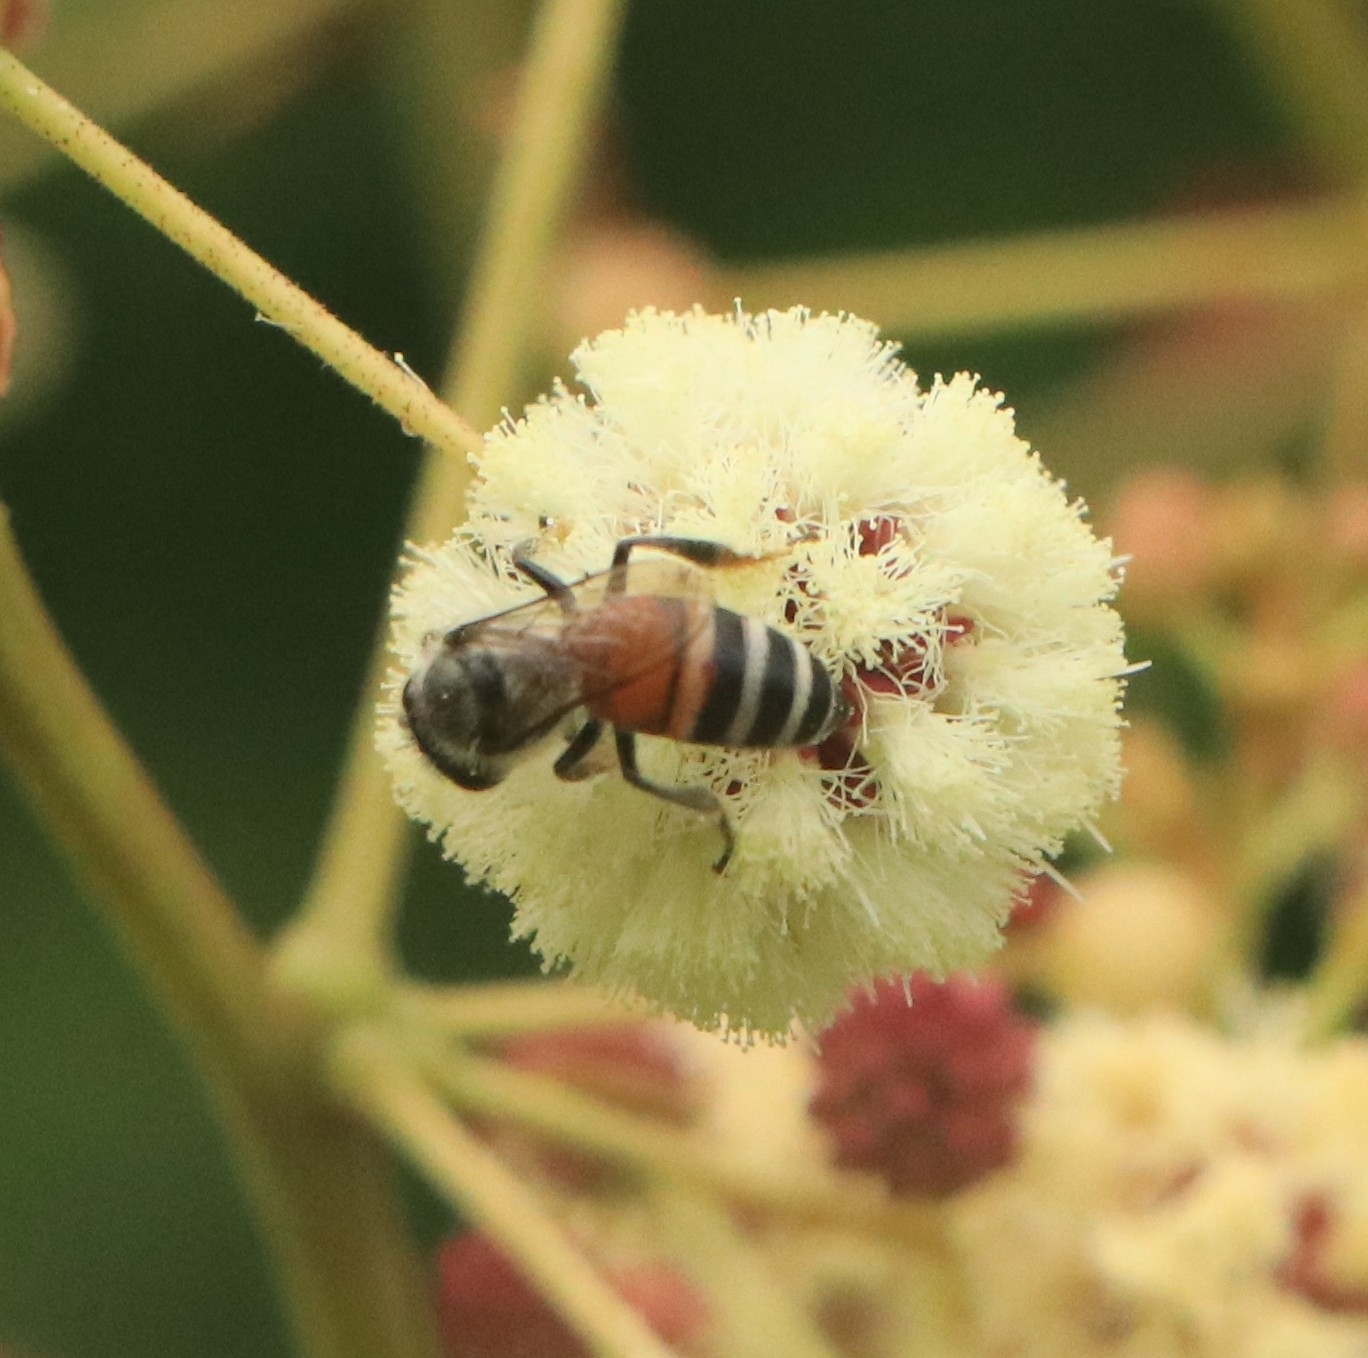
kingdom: Animalia
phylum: Arthropoda
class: Insecta
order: Hymenoptera
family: Apidae
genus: Apis
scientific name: Apis florea
